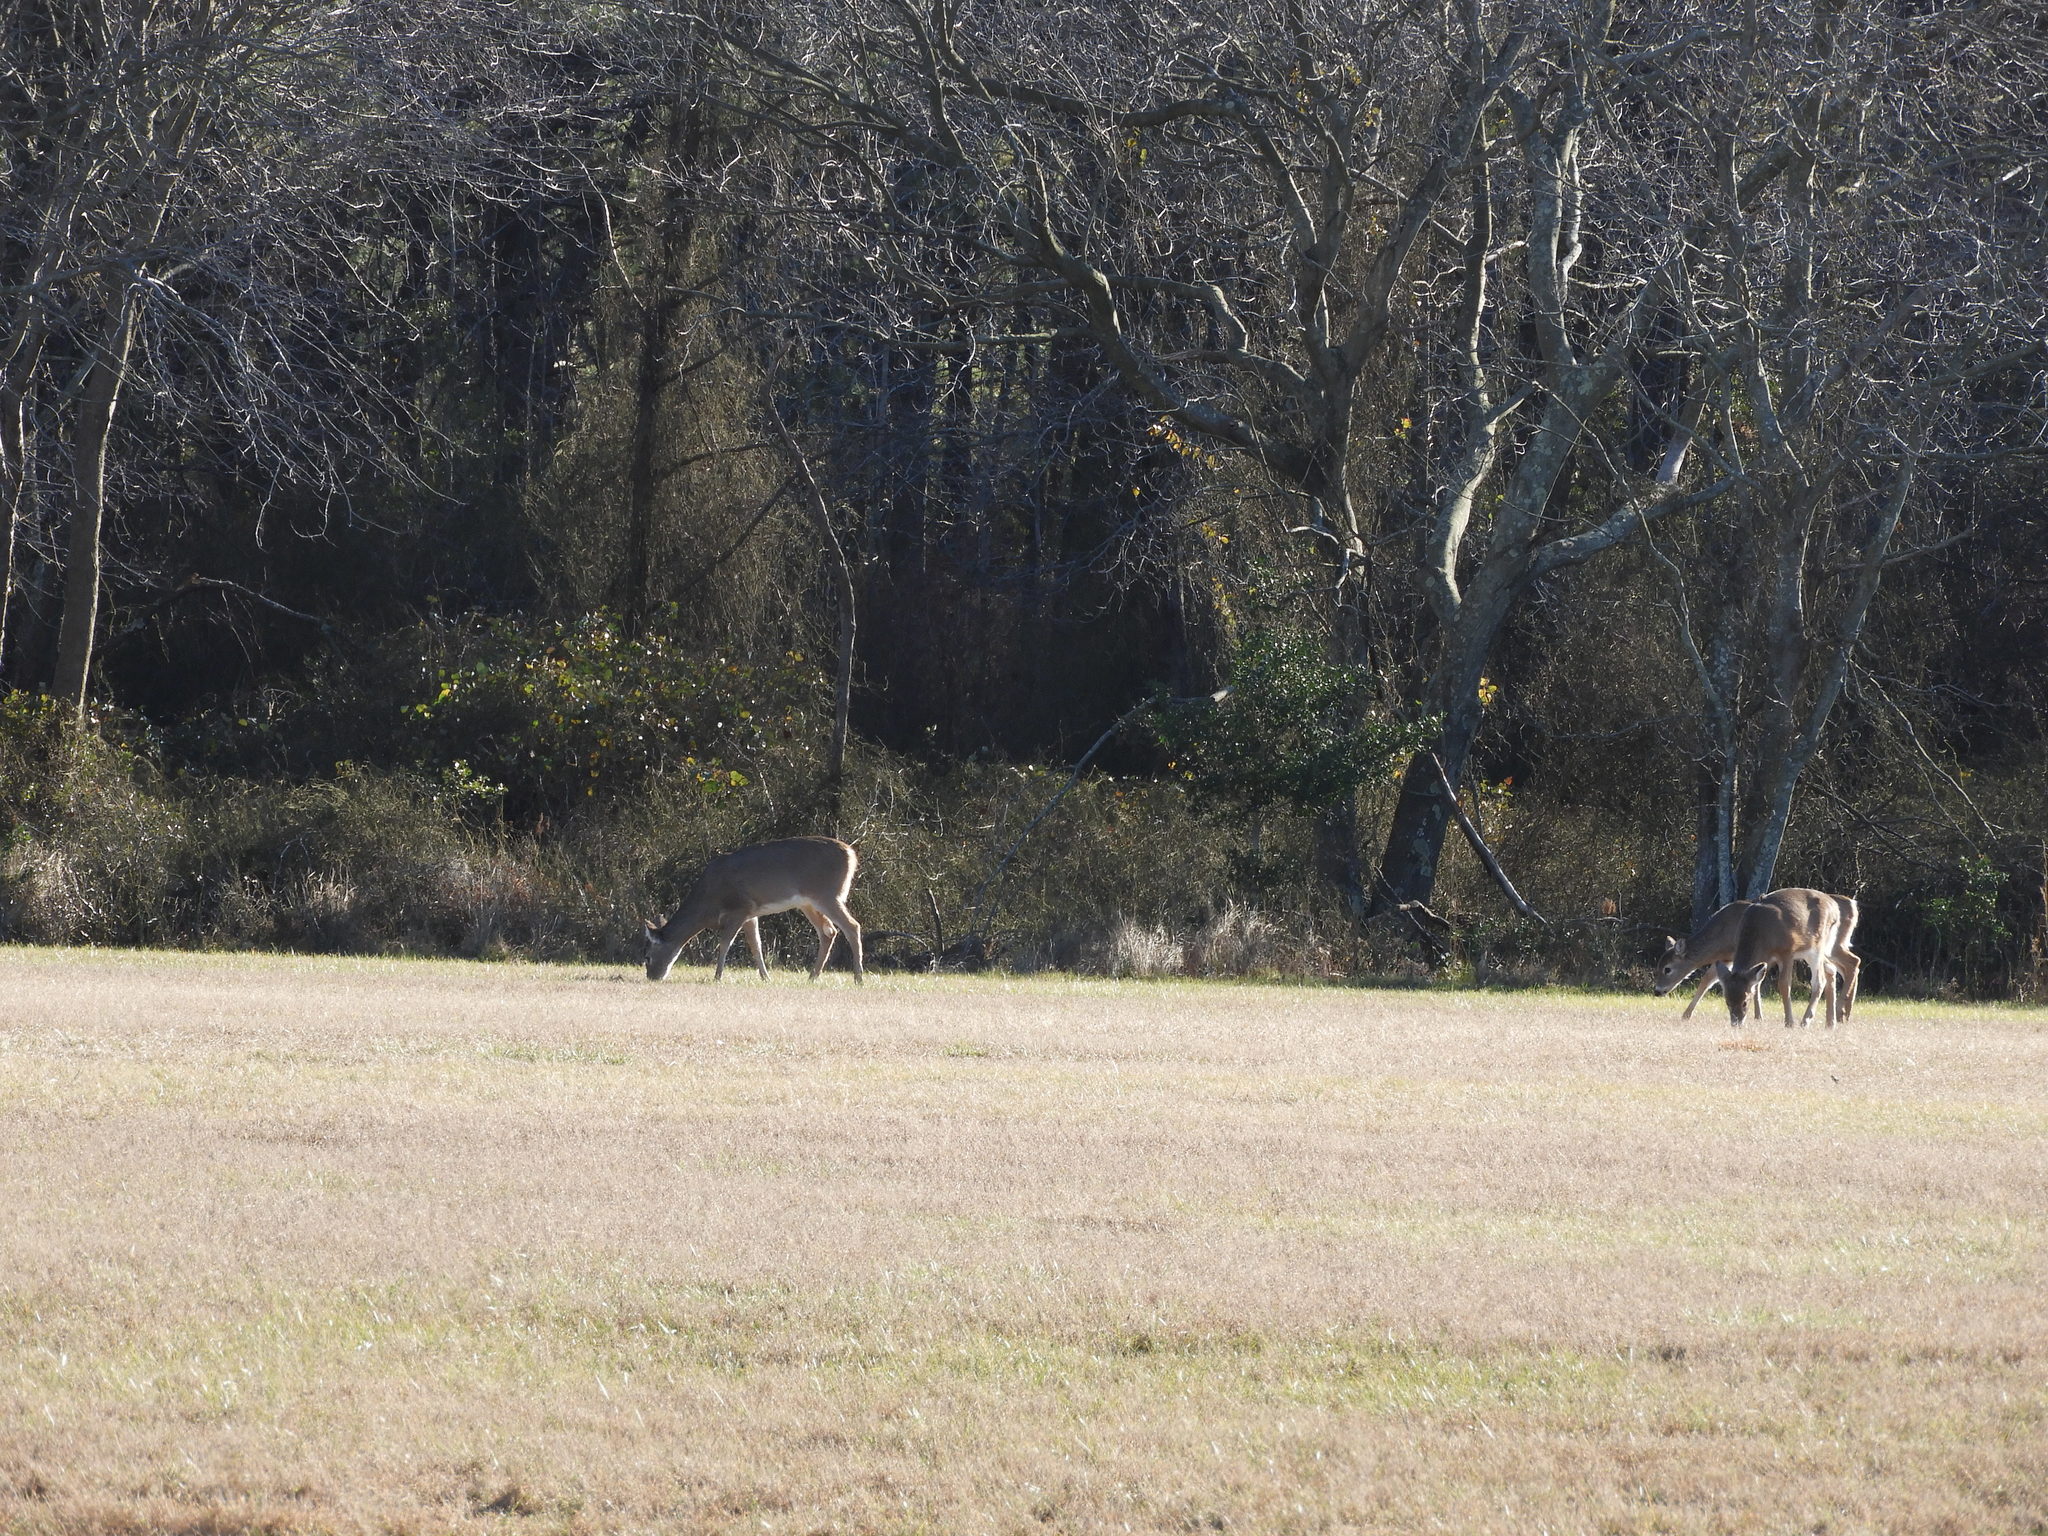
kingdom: Animalia
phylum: Chordata
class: Mammalia
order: Artiodactyla
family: Cervidae
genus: Odocoileus
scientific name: Odocoileus virginianus
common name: White-tailed deer
